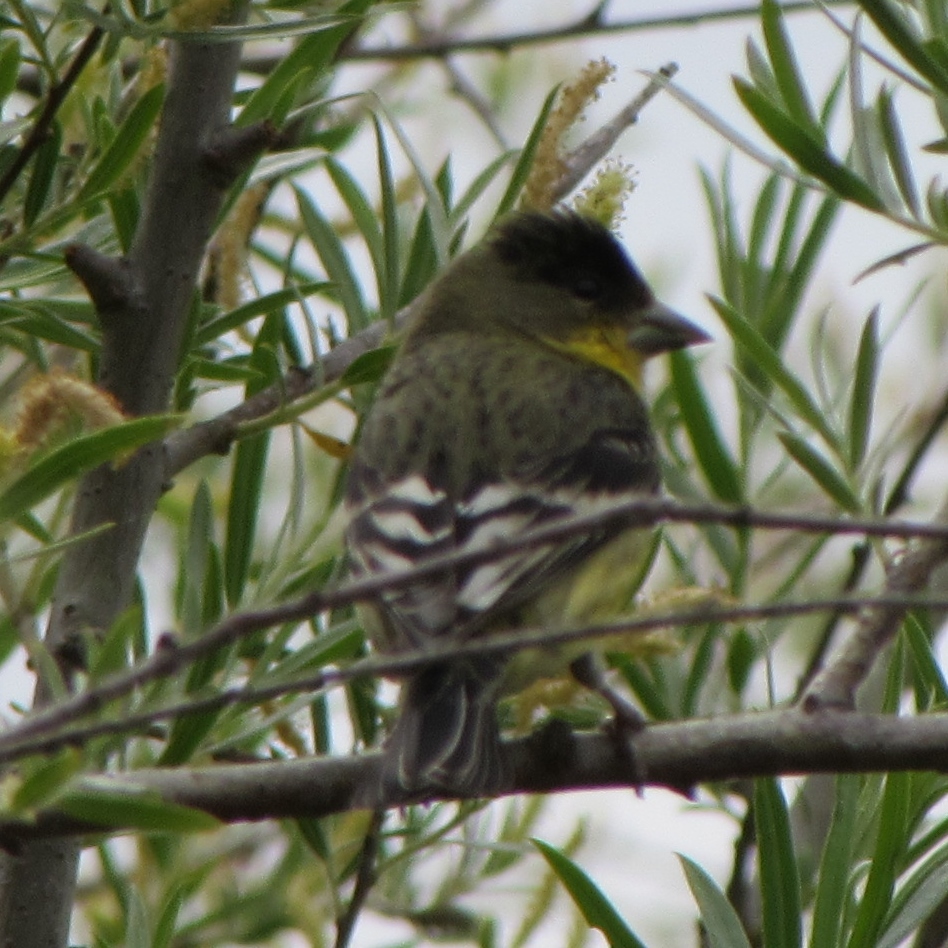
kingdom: Animalia
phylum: Chordata
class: Aves
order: Passeriformes
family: Fringillidae
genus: Spinus
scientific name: Spinus psaltria
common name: Lesser goldfinch
